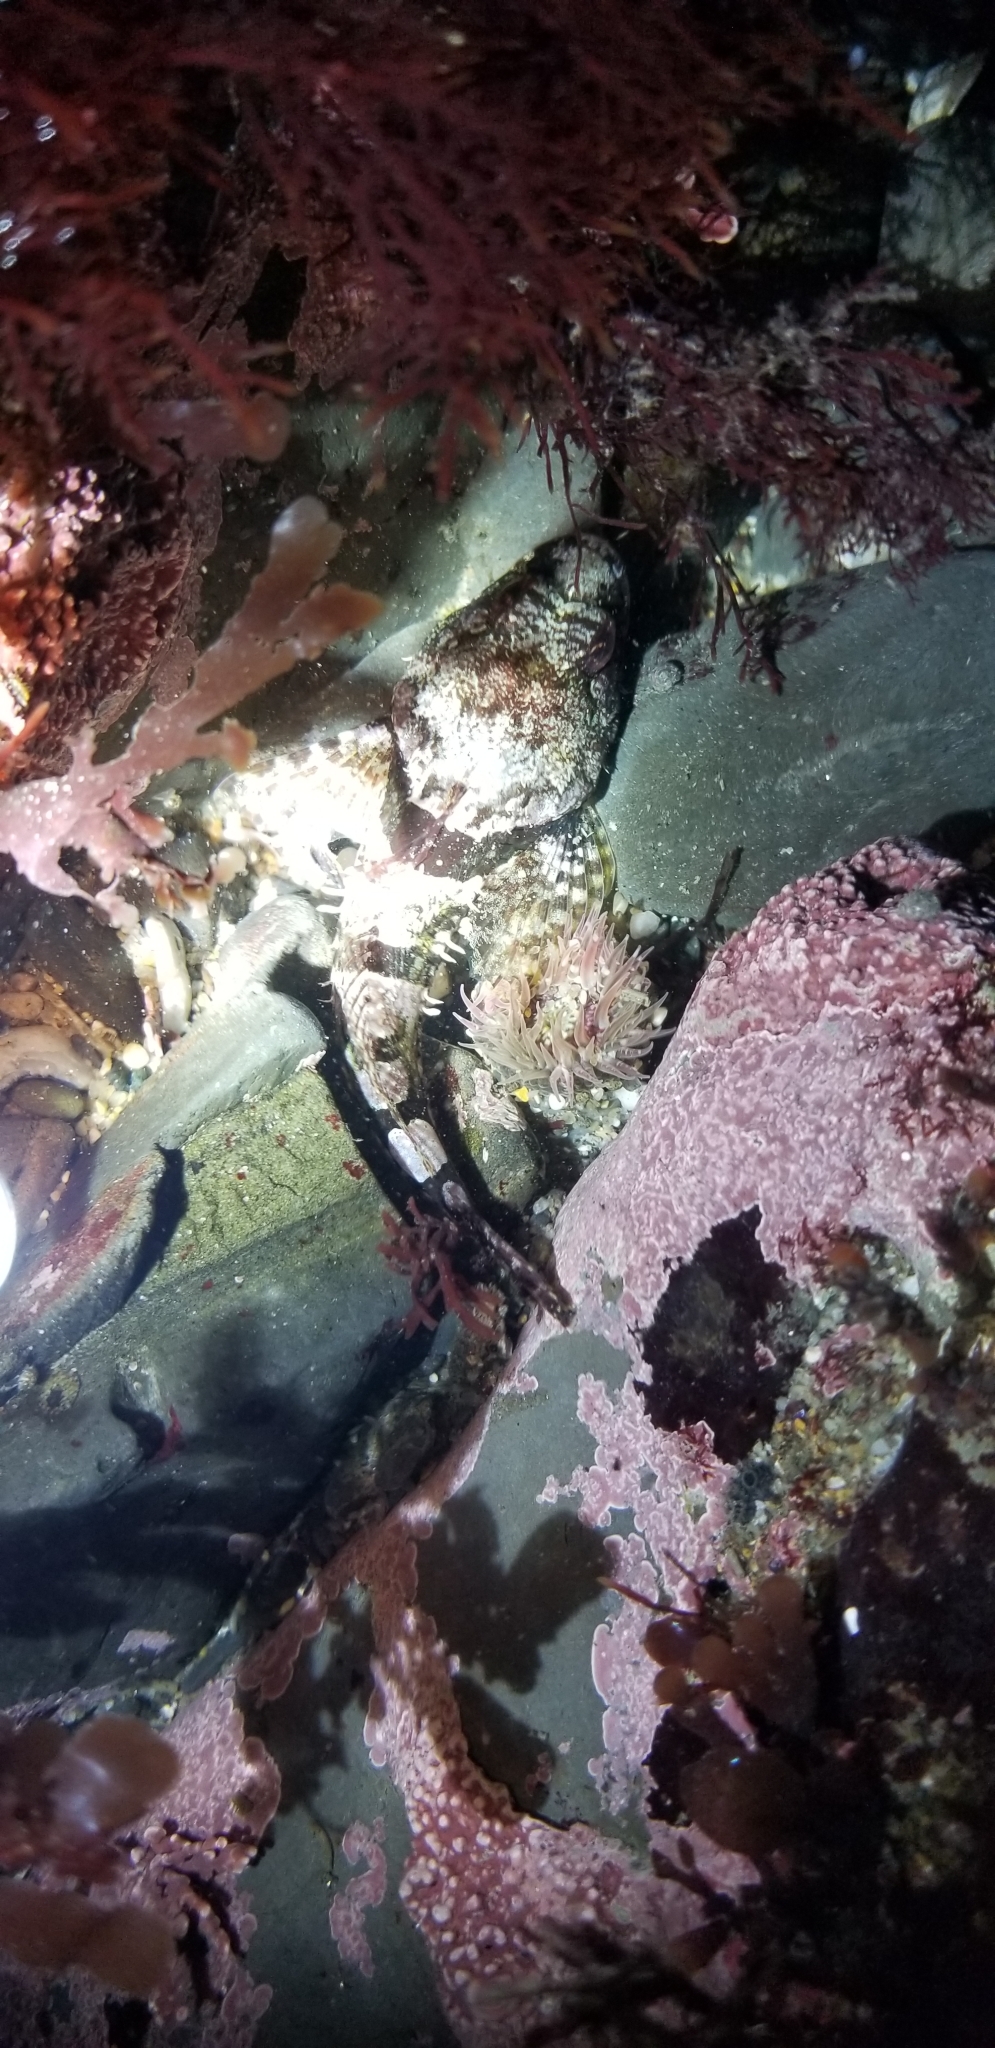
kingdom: Animalia
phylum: Chordata
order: Scorpaeniformes
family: Cottidae
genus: Artedius
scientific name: Artedius lateralis
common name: Smooth-head sculpin
